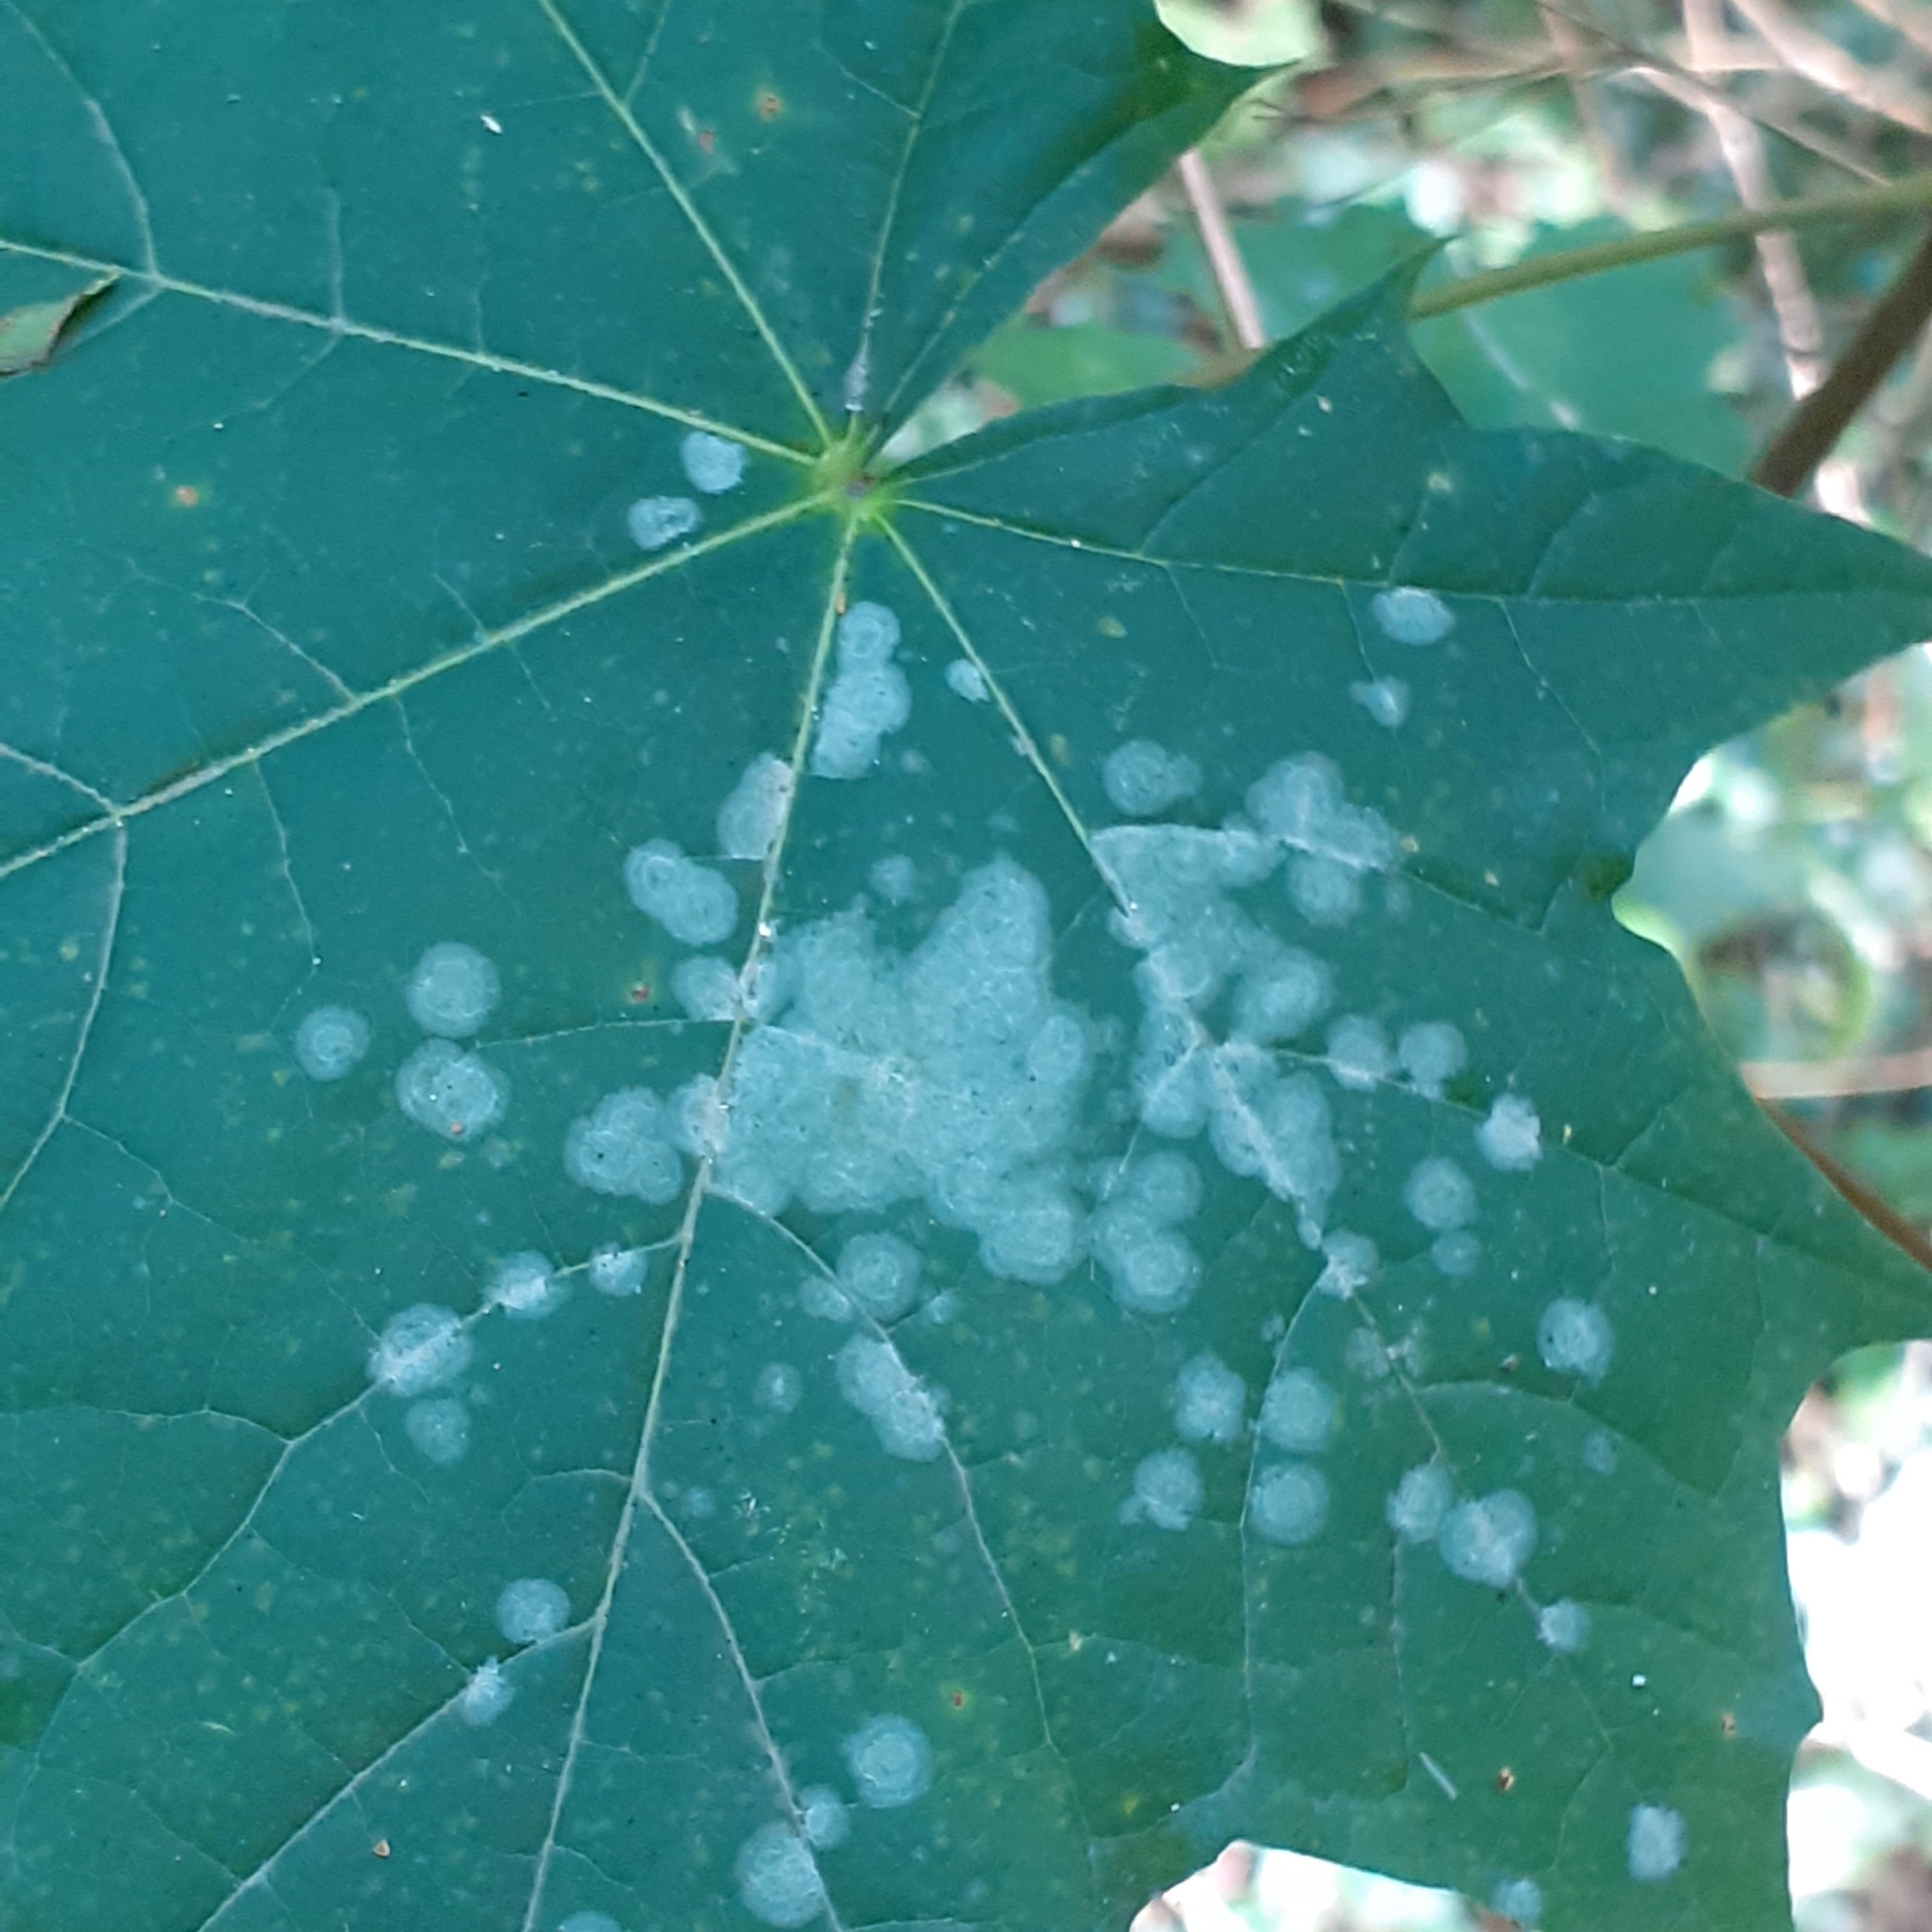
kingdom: Fungi
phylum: Ascomycota
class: Leotiomycetes
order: Helotiales
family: Erysiphaceae
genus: Sawadaea
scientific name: Sawadaea tulasnei
